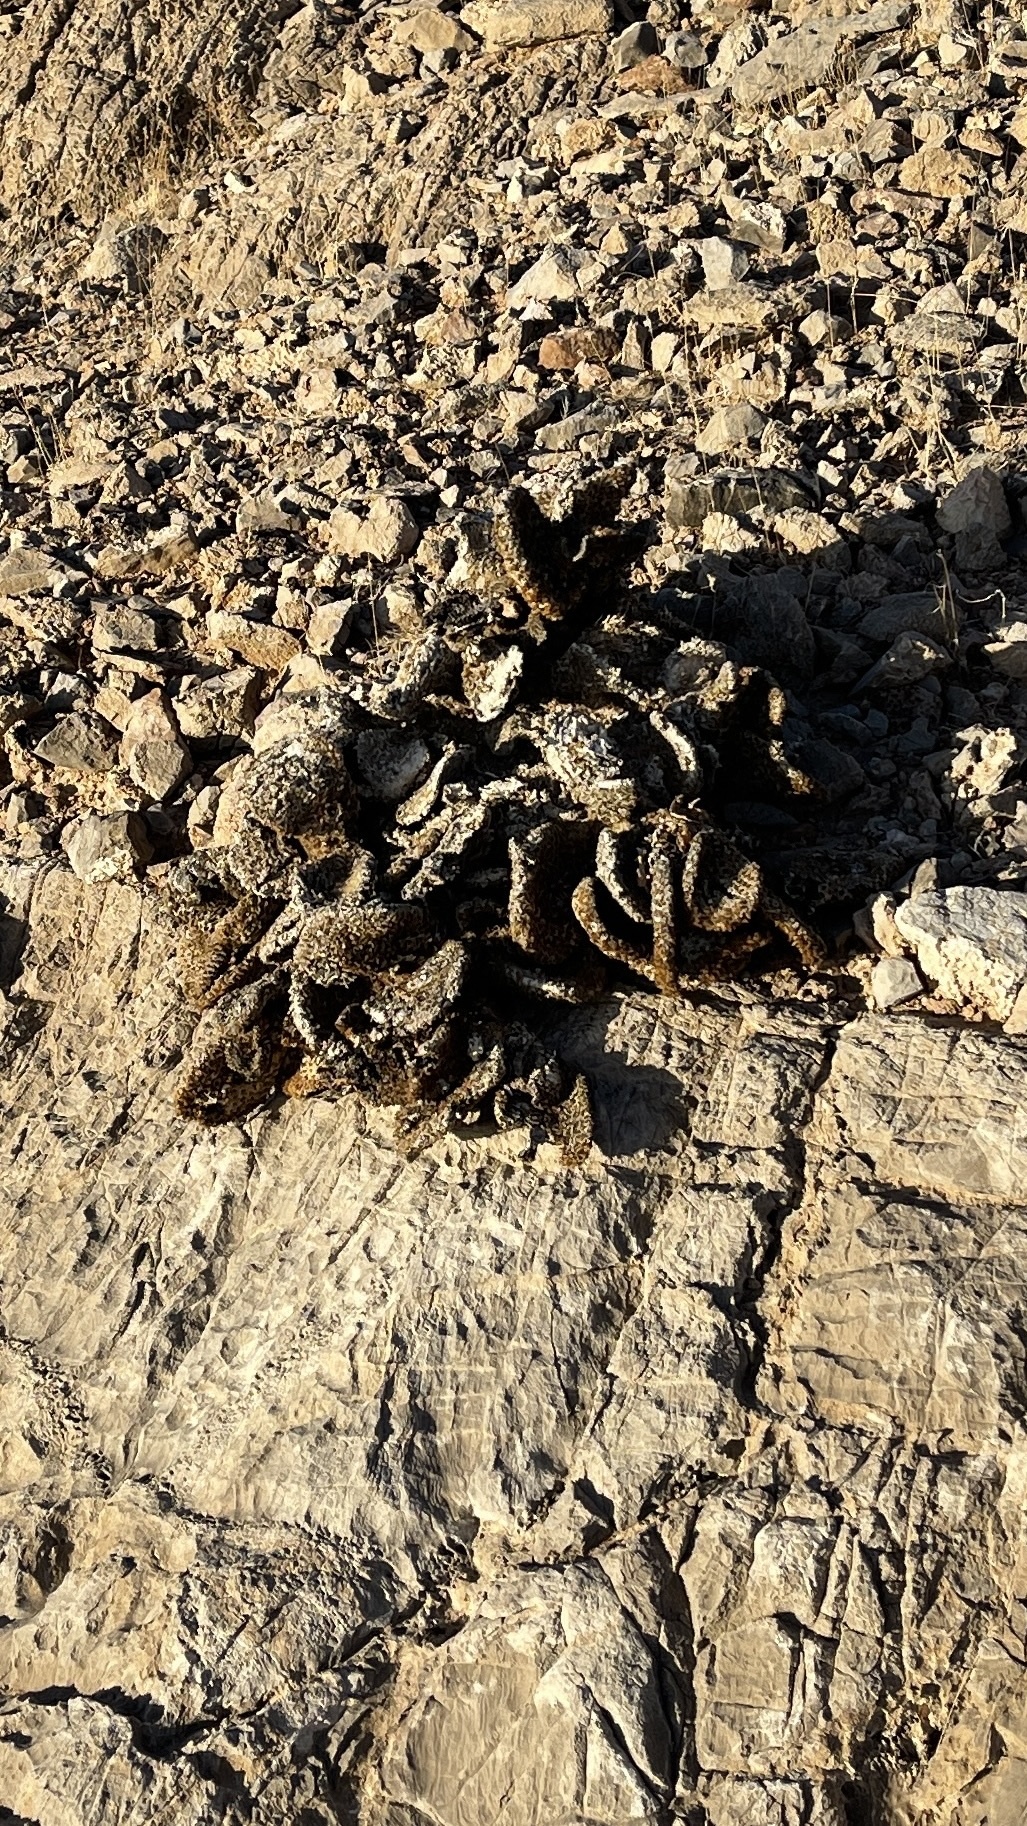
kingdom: Plantae
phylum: Tracheophyta
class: Magnoliopsida
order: Caryophyllales
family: Cactaceae
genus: Opuntia
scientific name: Opuntia basilaris
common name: Beavertail prickly-pear
